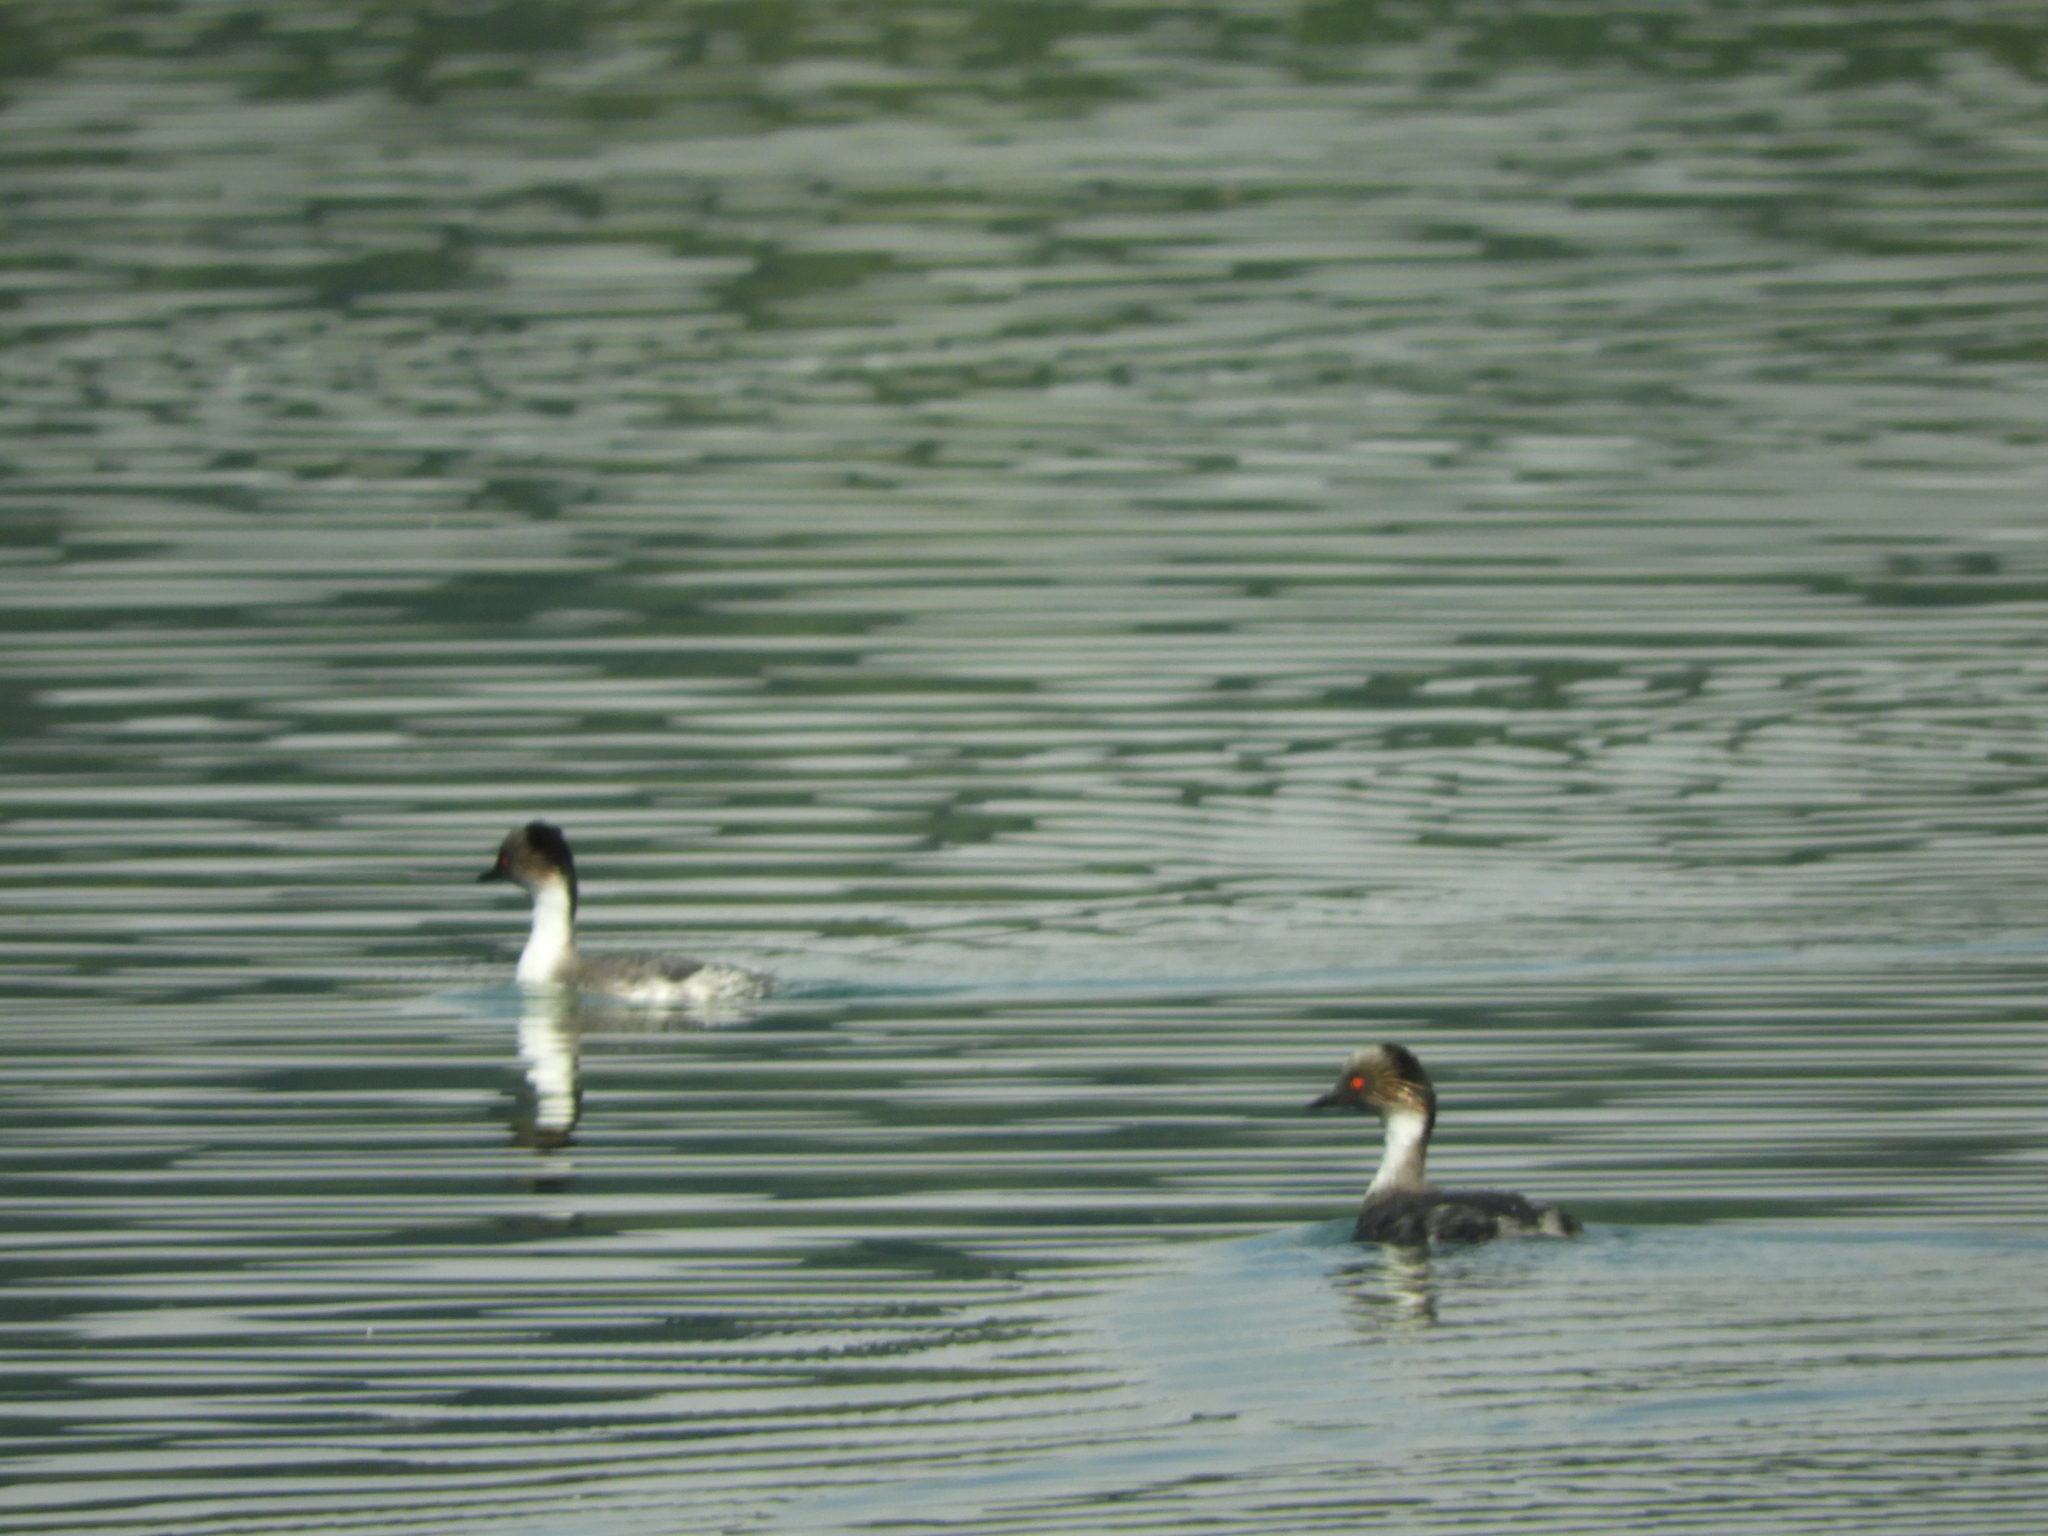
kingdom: Animalia
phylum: Chordata
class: Aves
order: Podicipediformes
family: Podicipedidae
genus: Podiceps
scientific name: Podiceps occipitalis
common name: Silvery grebe
